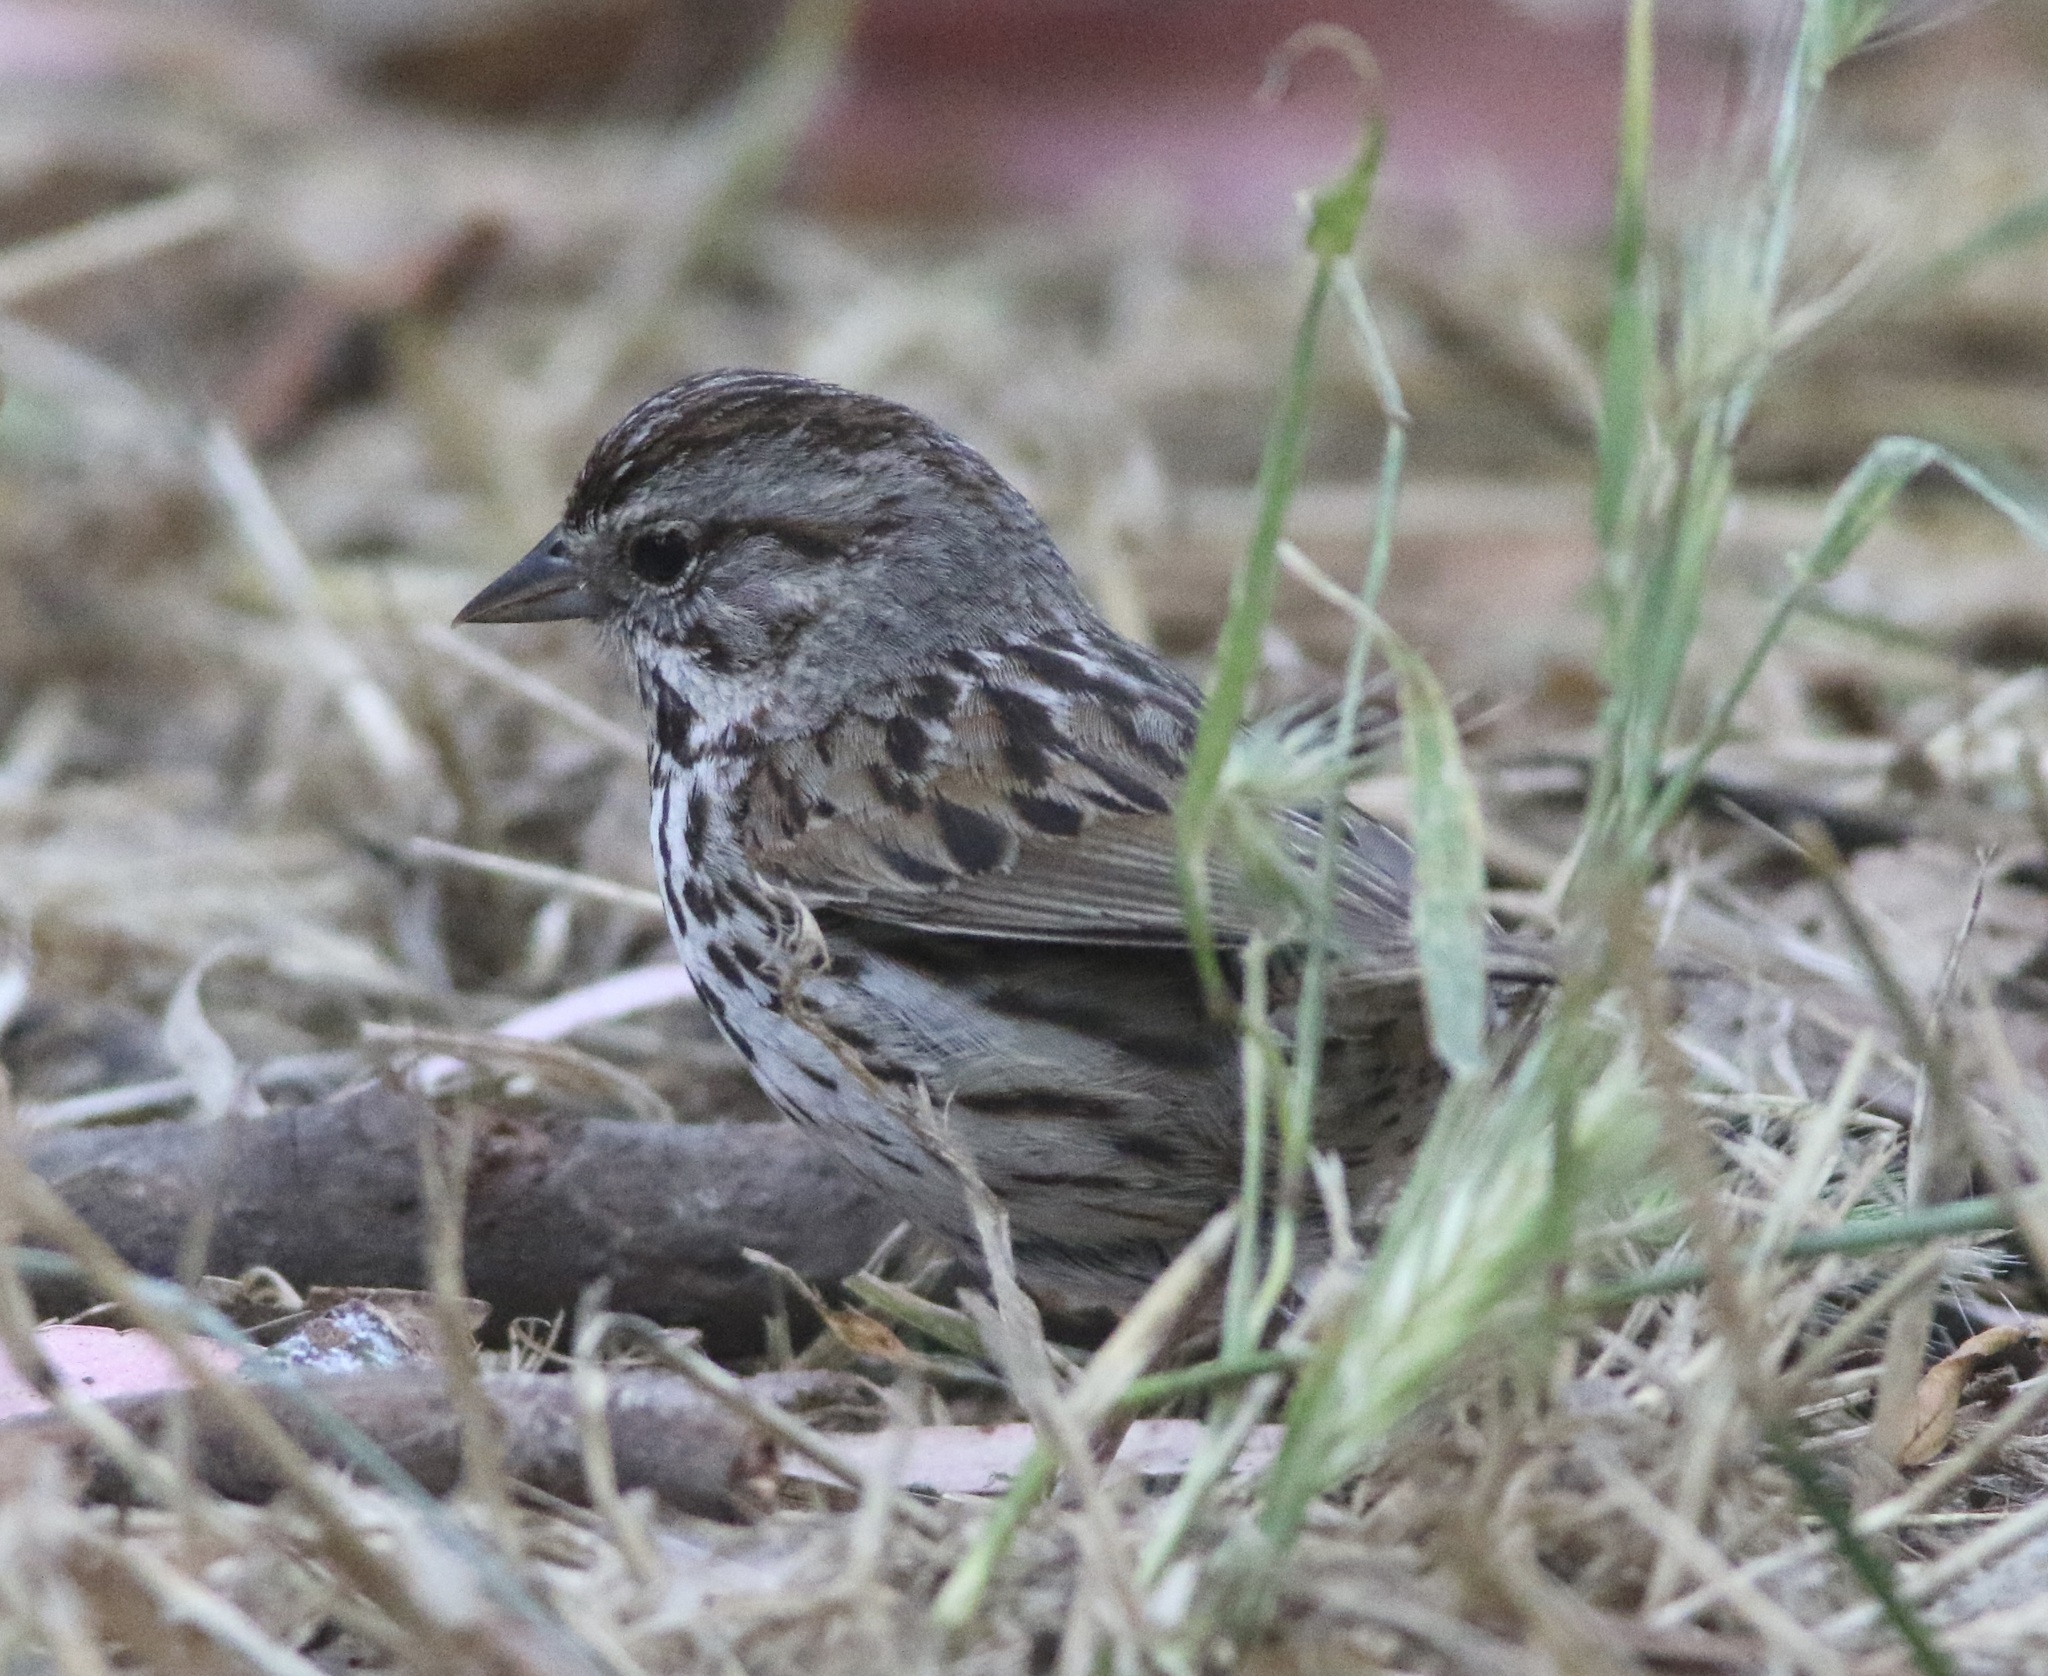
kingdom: Animalia
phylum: Chordata
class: Aves
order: Passeriformes
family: Passerellidae
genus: Melospiza
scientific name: Melospiza melodia
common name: Song sparrow
